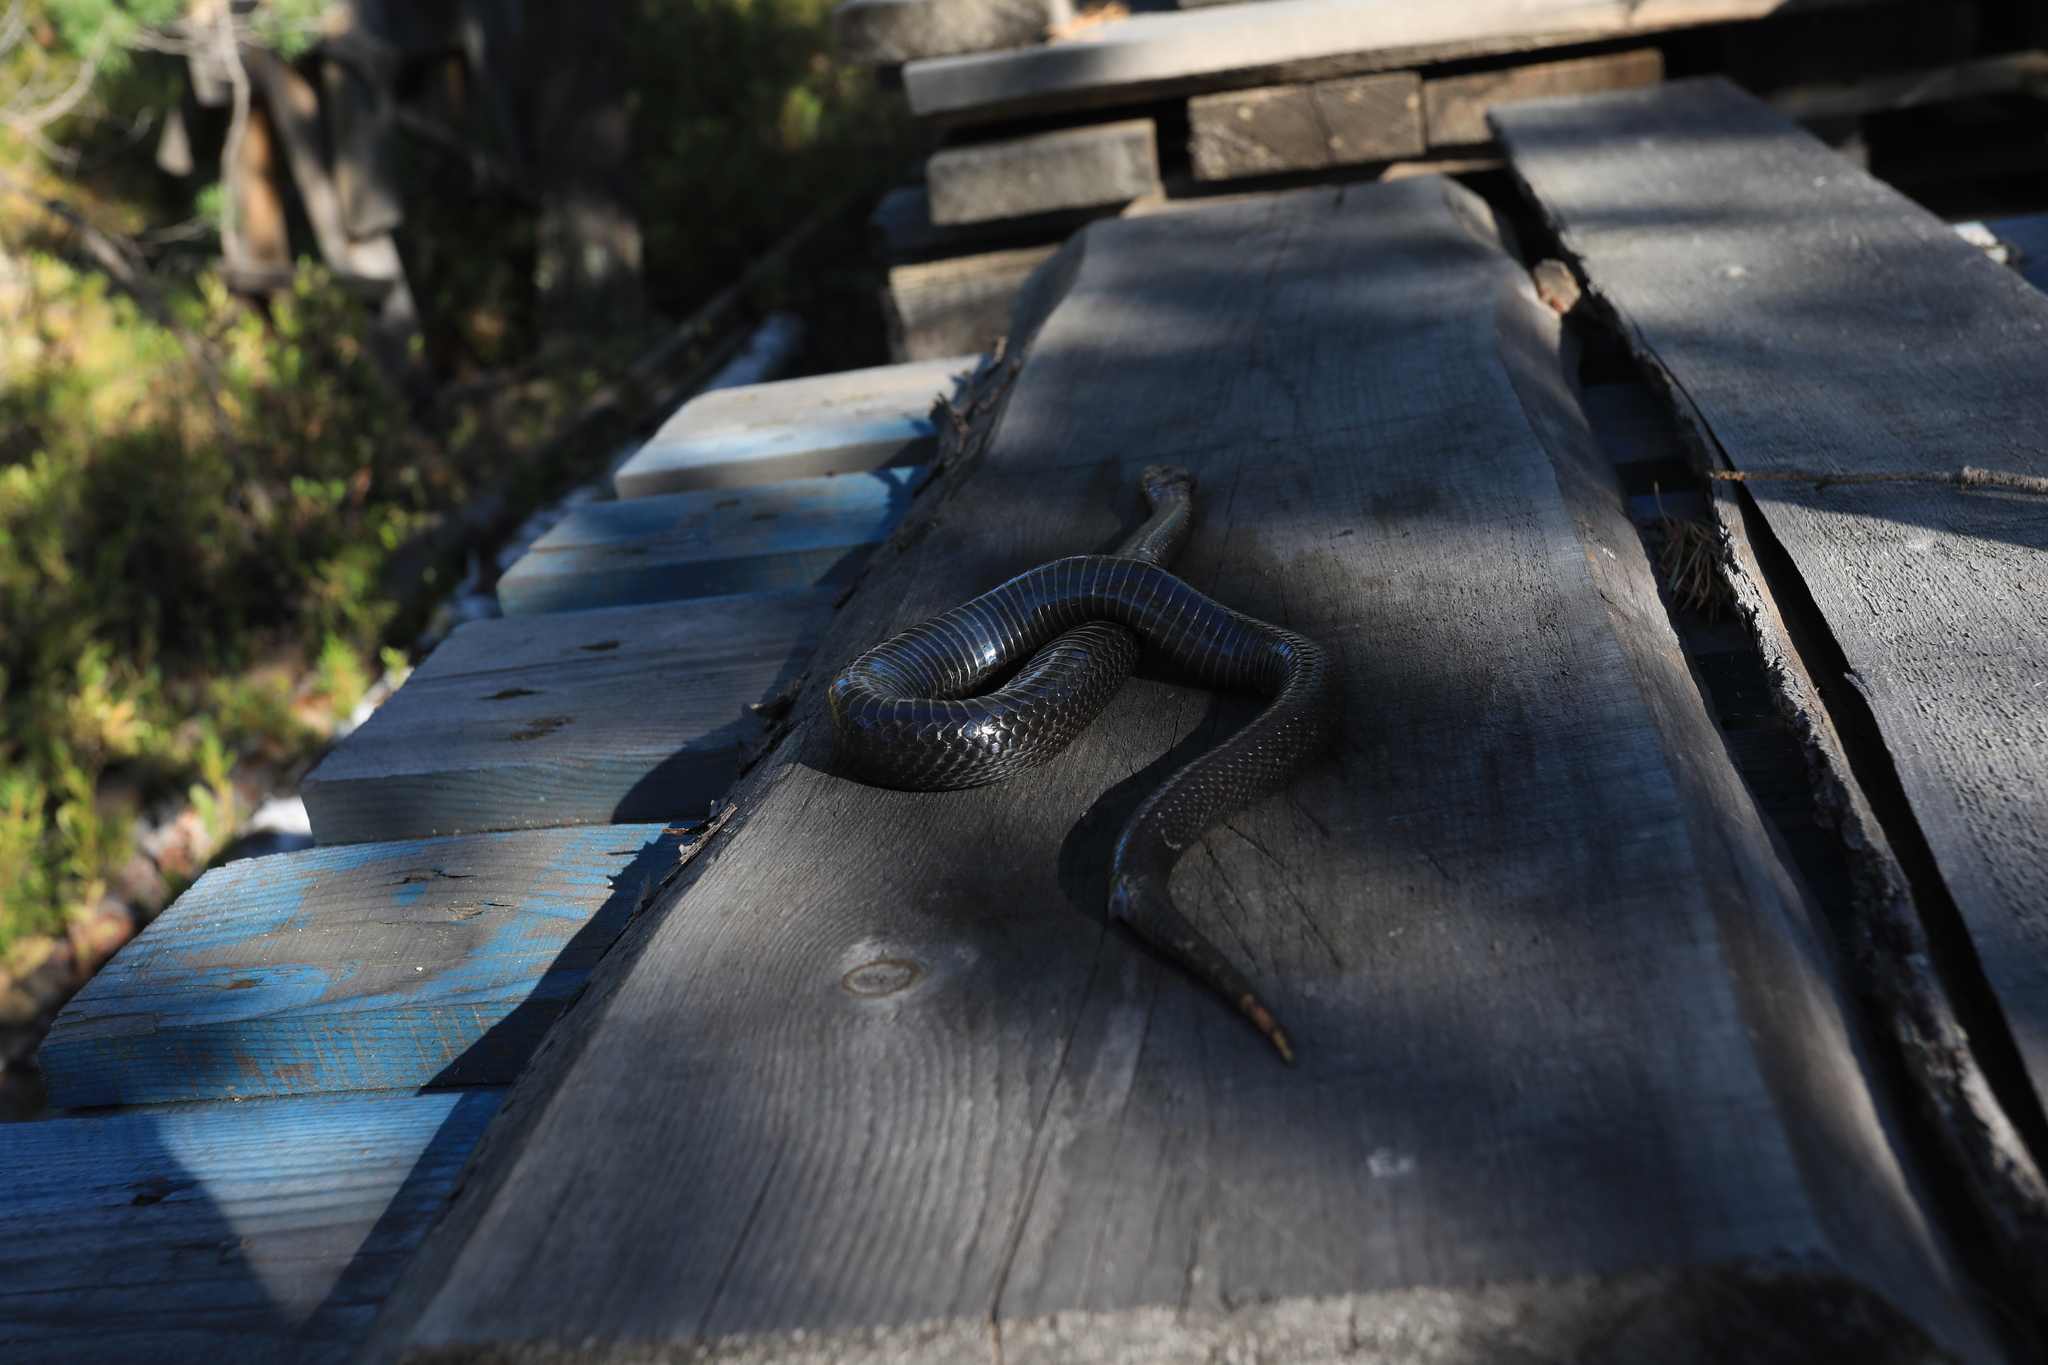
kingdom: Animalia
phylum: Chordata
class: Squamata
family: Viperidae
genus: Vipera
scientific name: Vipera berus
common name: Adder
